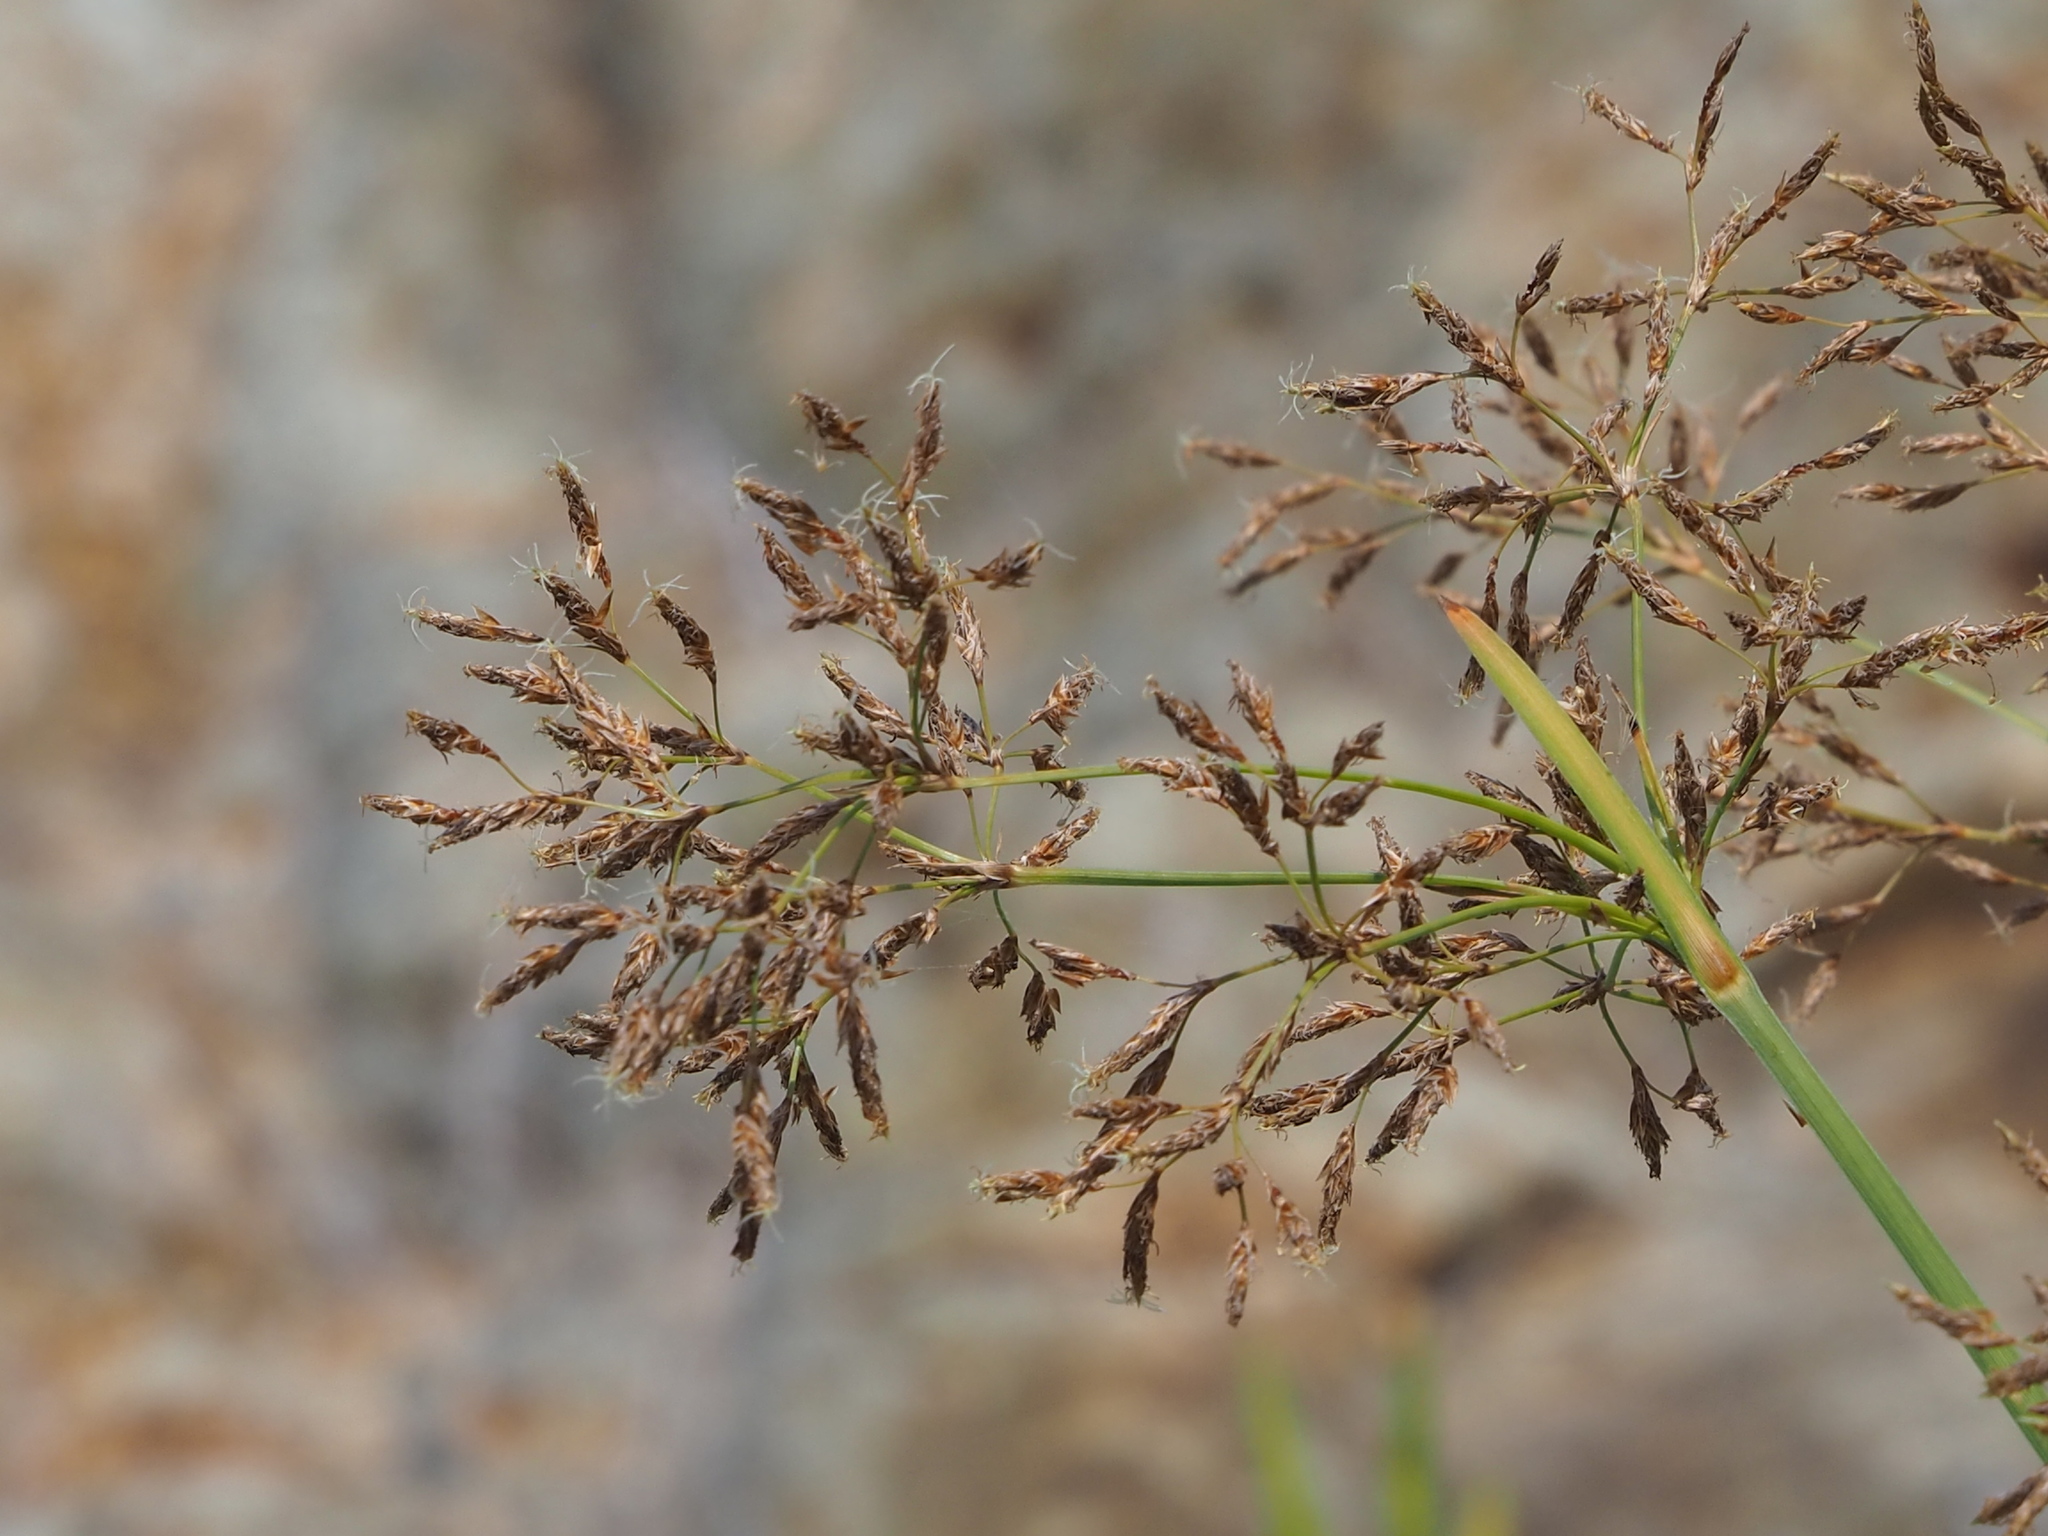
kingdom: Plantae
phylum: Tracheophyta
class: Liliopsida
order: Poales
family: Cyperaceae
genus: Fimbristylis
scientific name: Fimbristylis complanata
